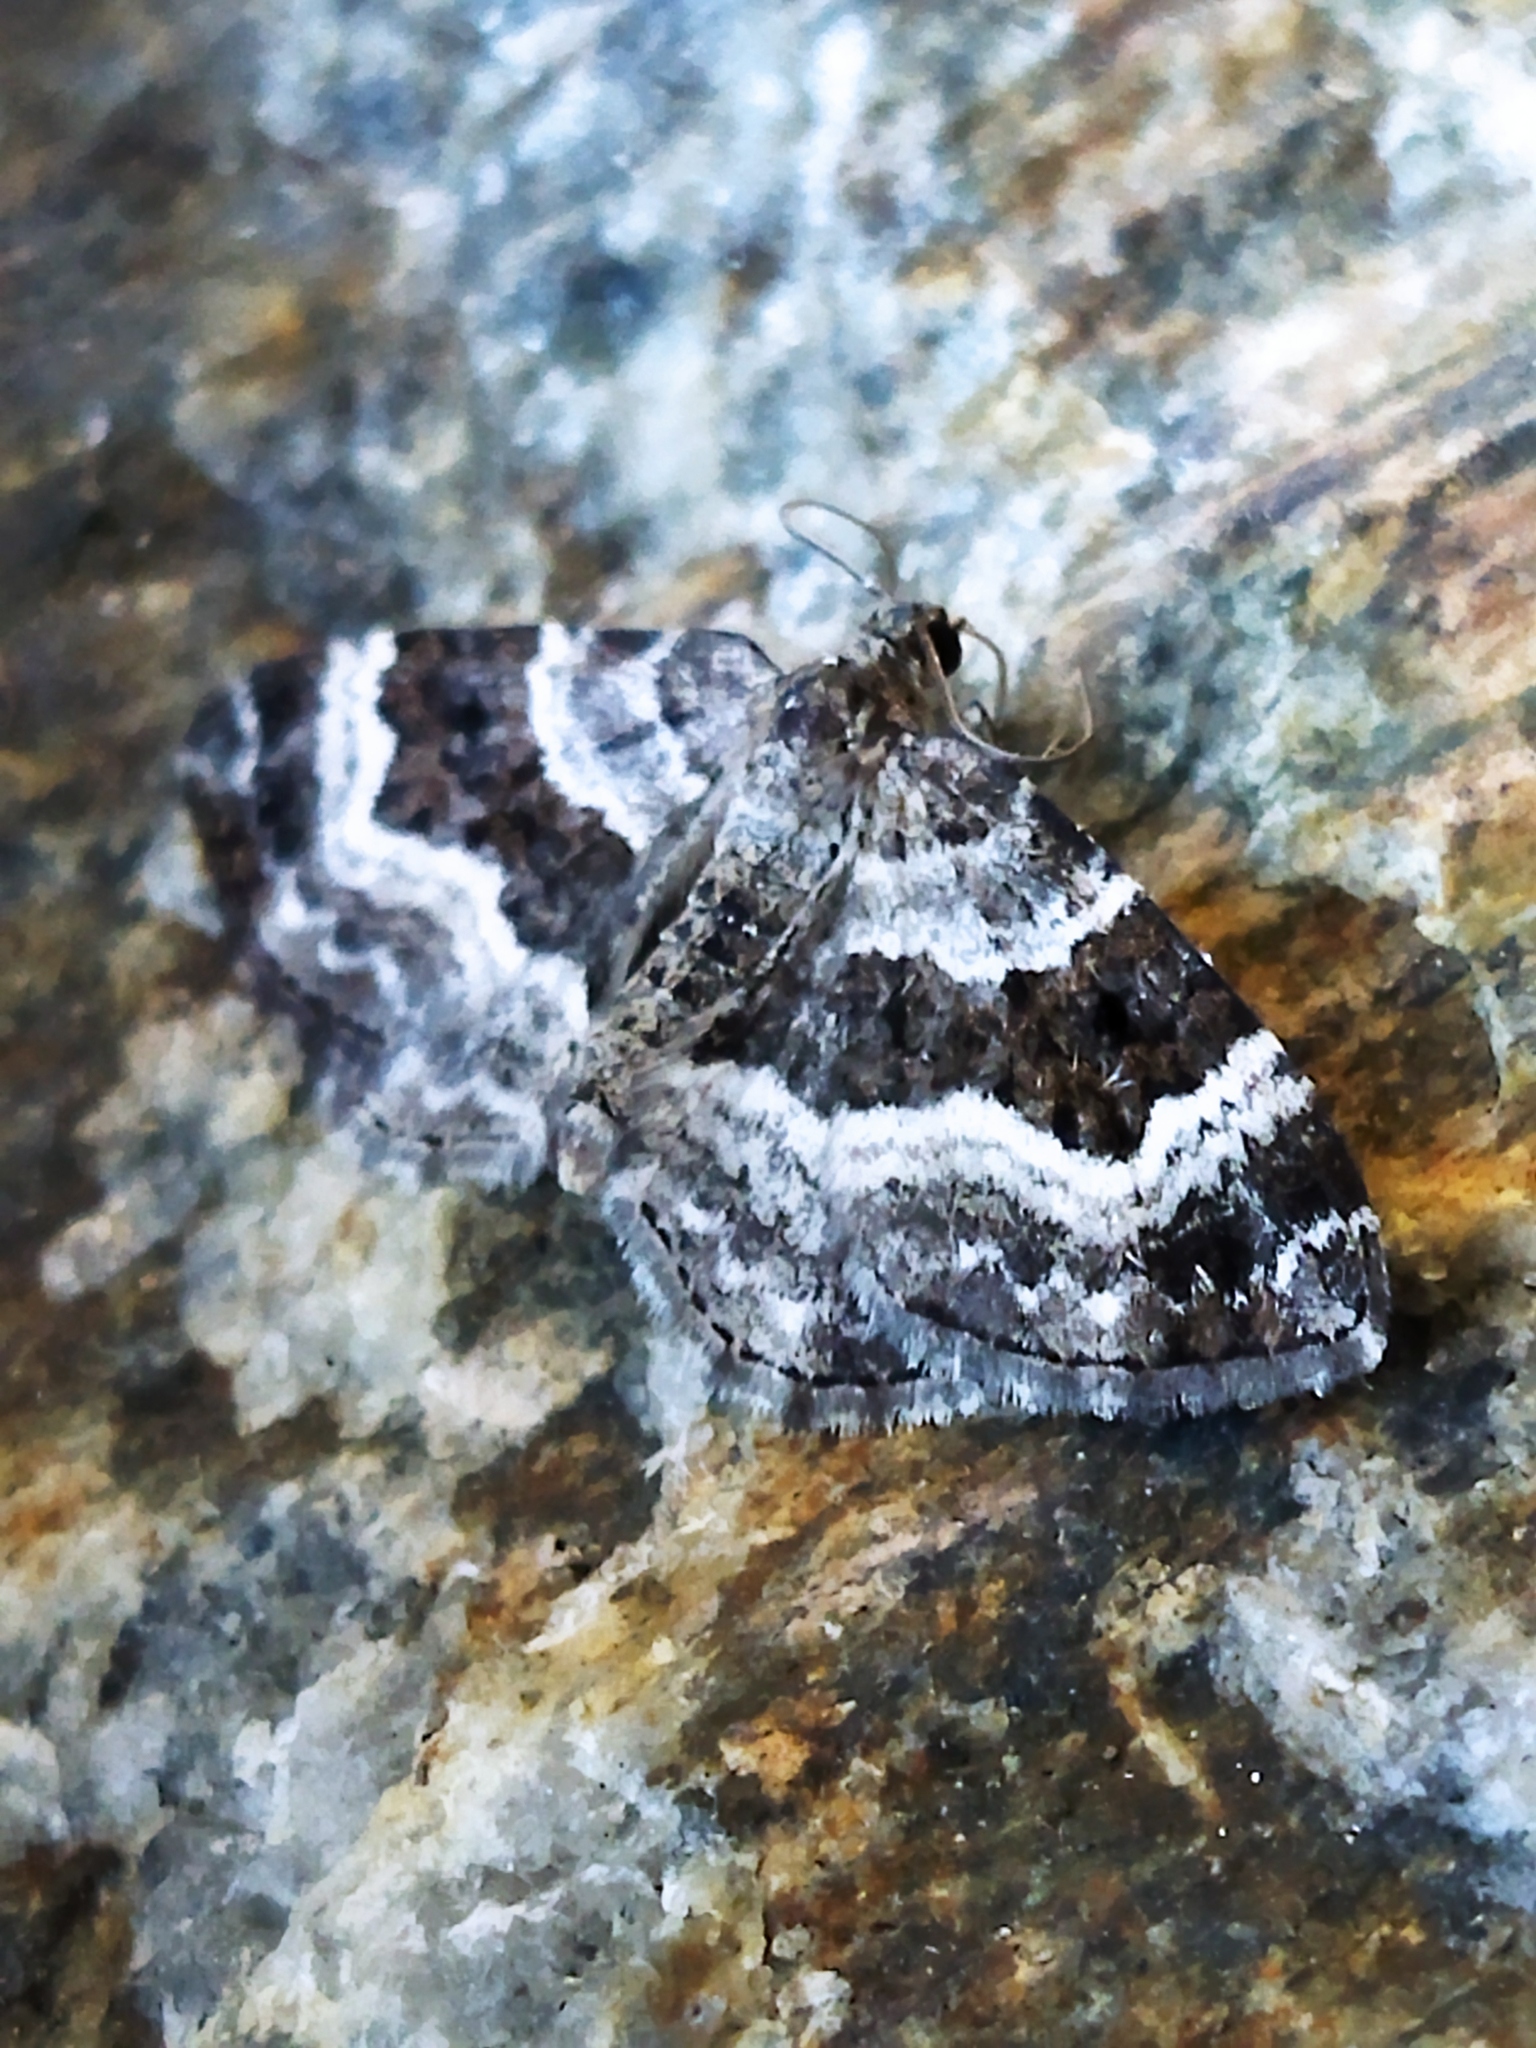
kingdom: Animalia
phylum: Arthropoda
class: Insecta
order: Lepidoptera
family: Geometridae
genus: Epirrhoe
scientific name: Epirrhoe alternata
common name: Common carpet
